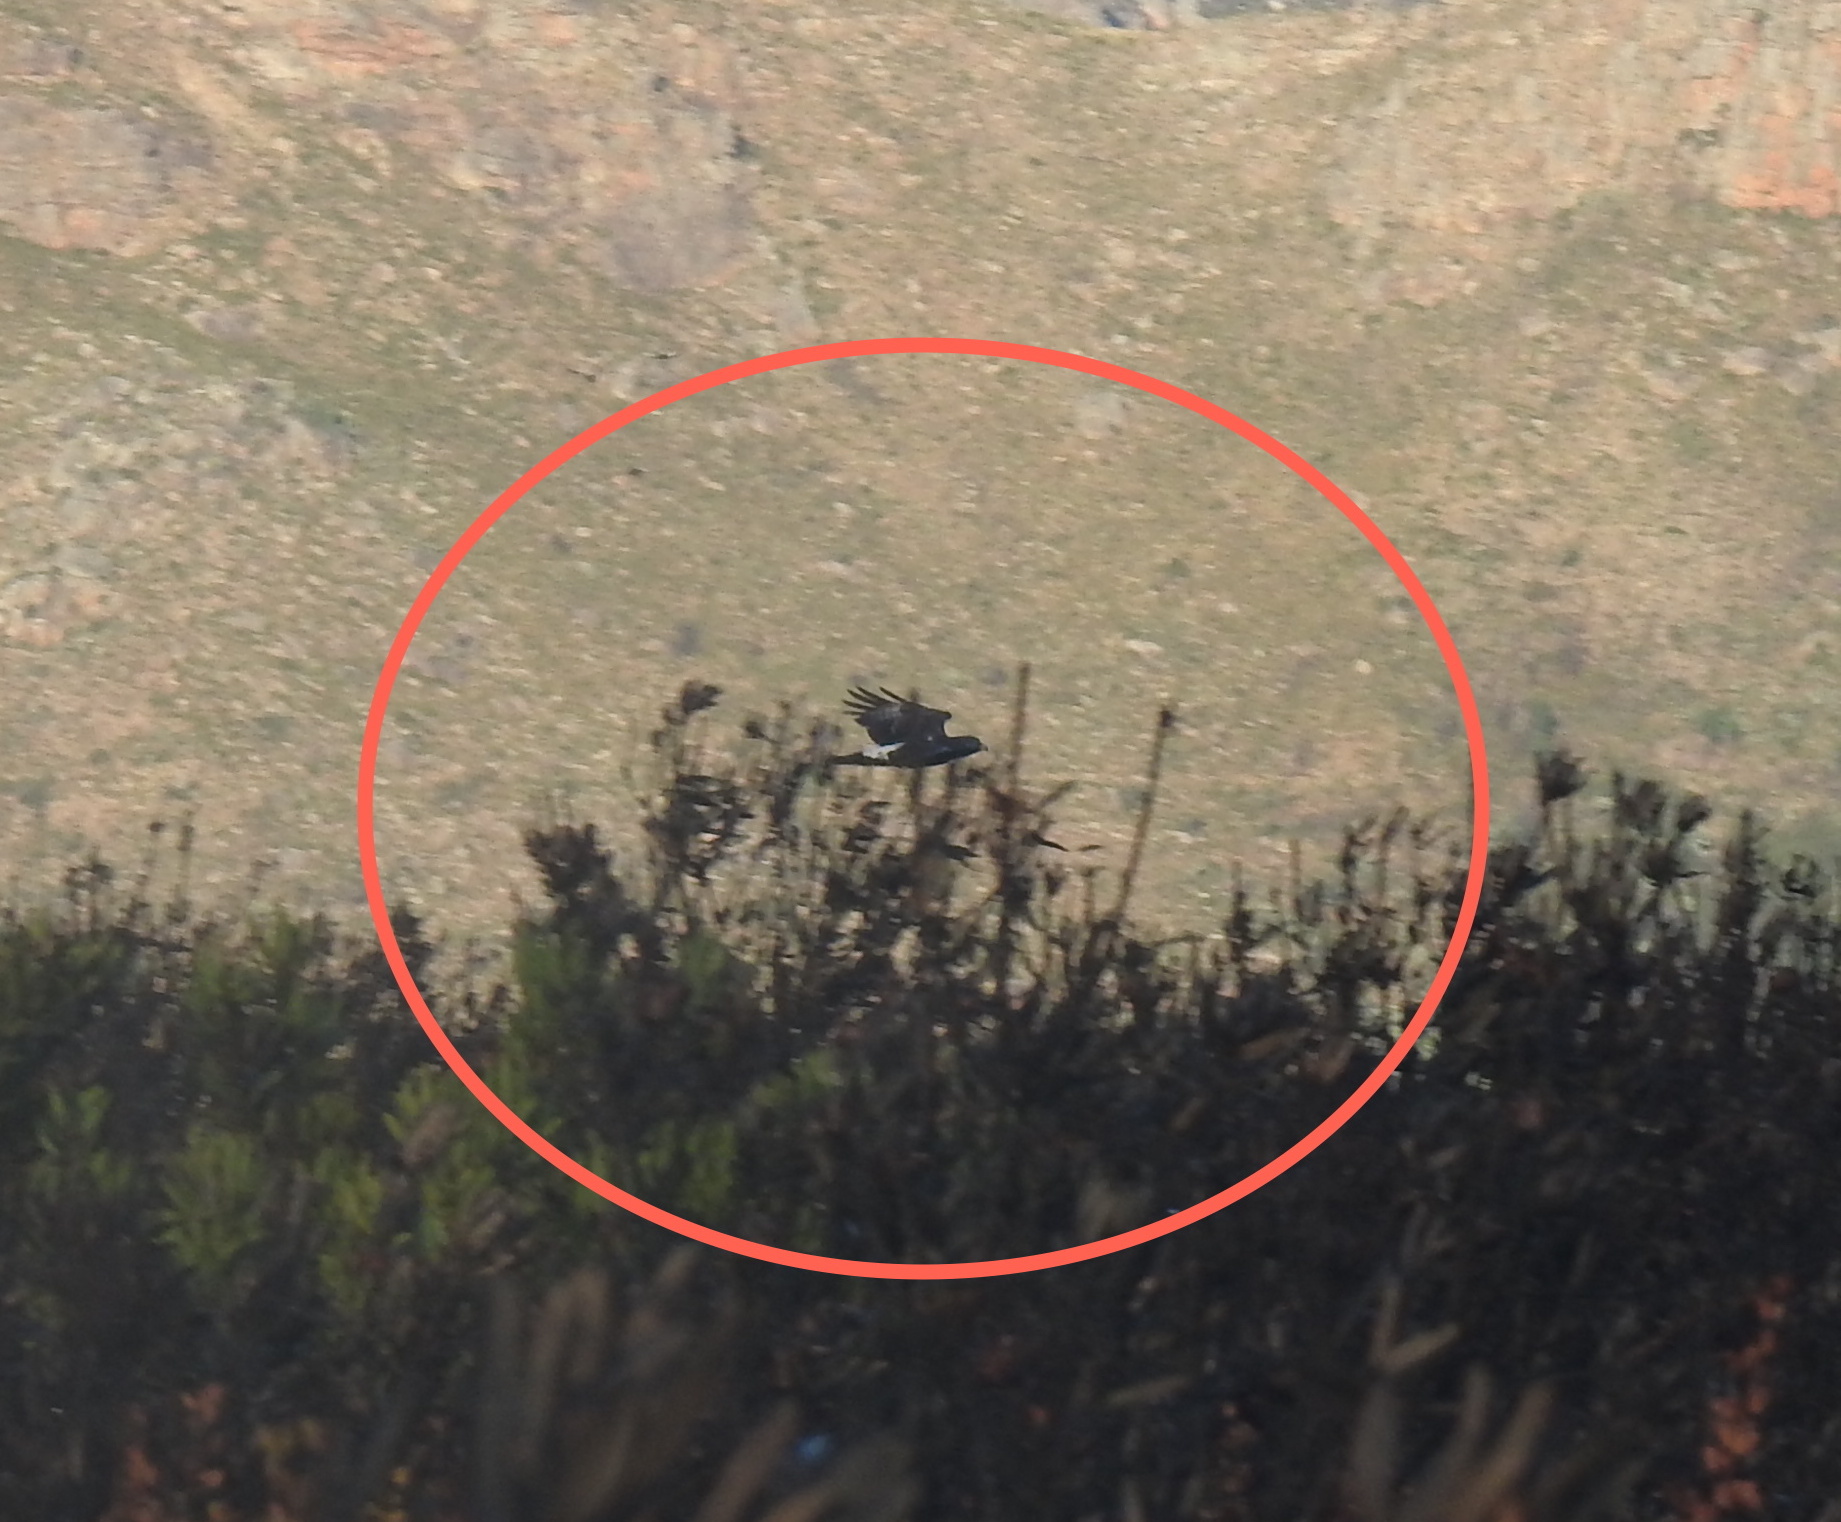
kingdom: Animalia
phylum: Chordata
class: Aves
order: Accipitriformes
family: Accipitridae
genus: Aquila
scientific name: Aquila verreauxii
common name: Verreaux's eagle
